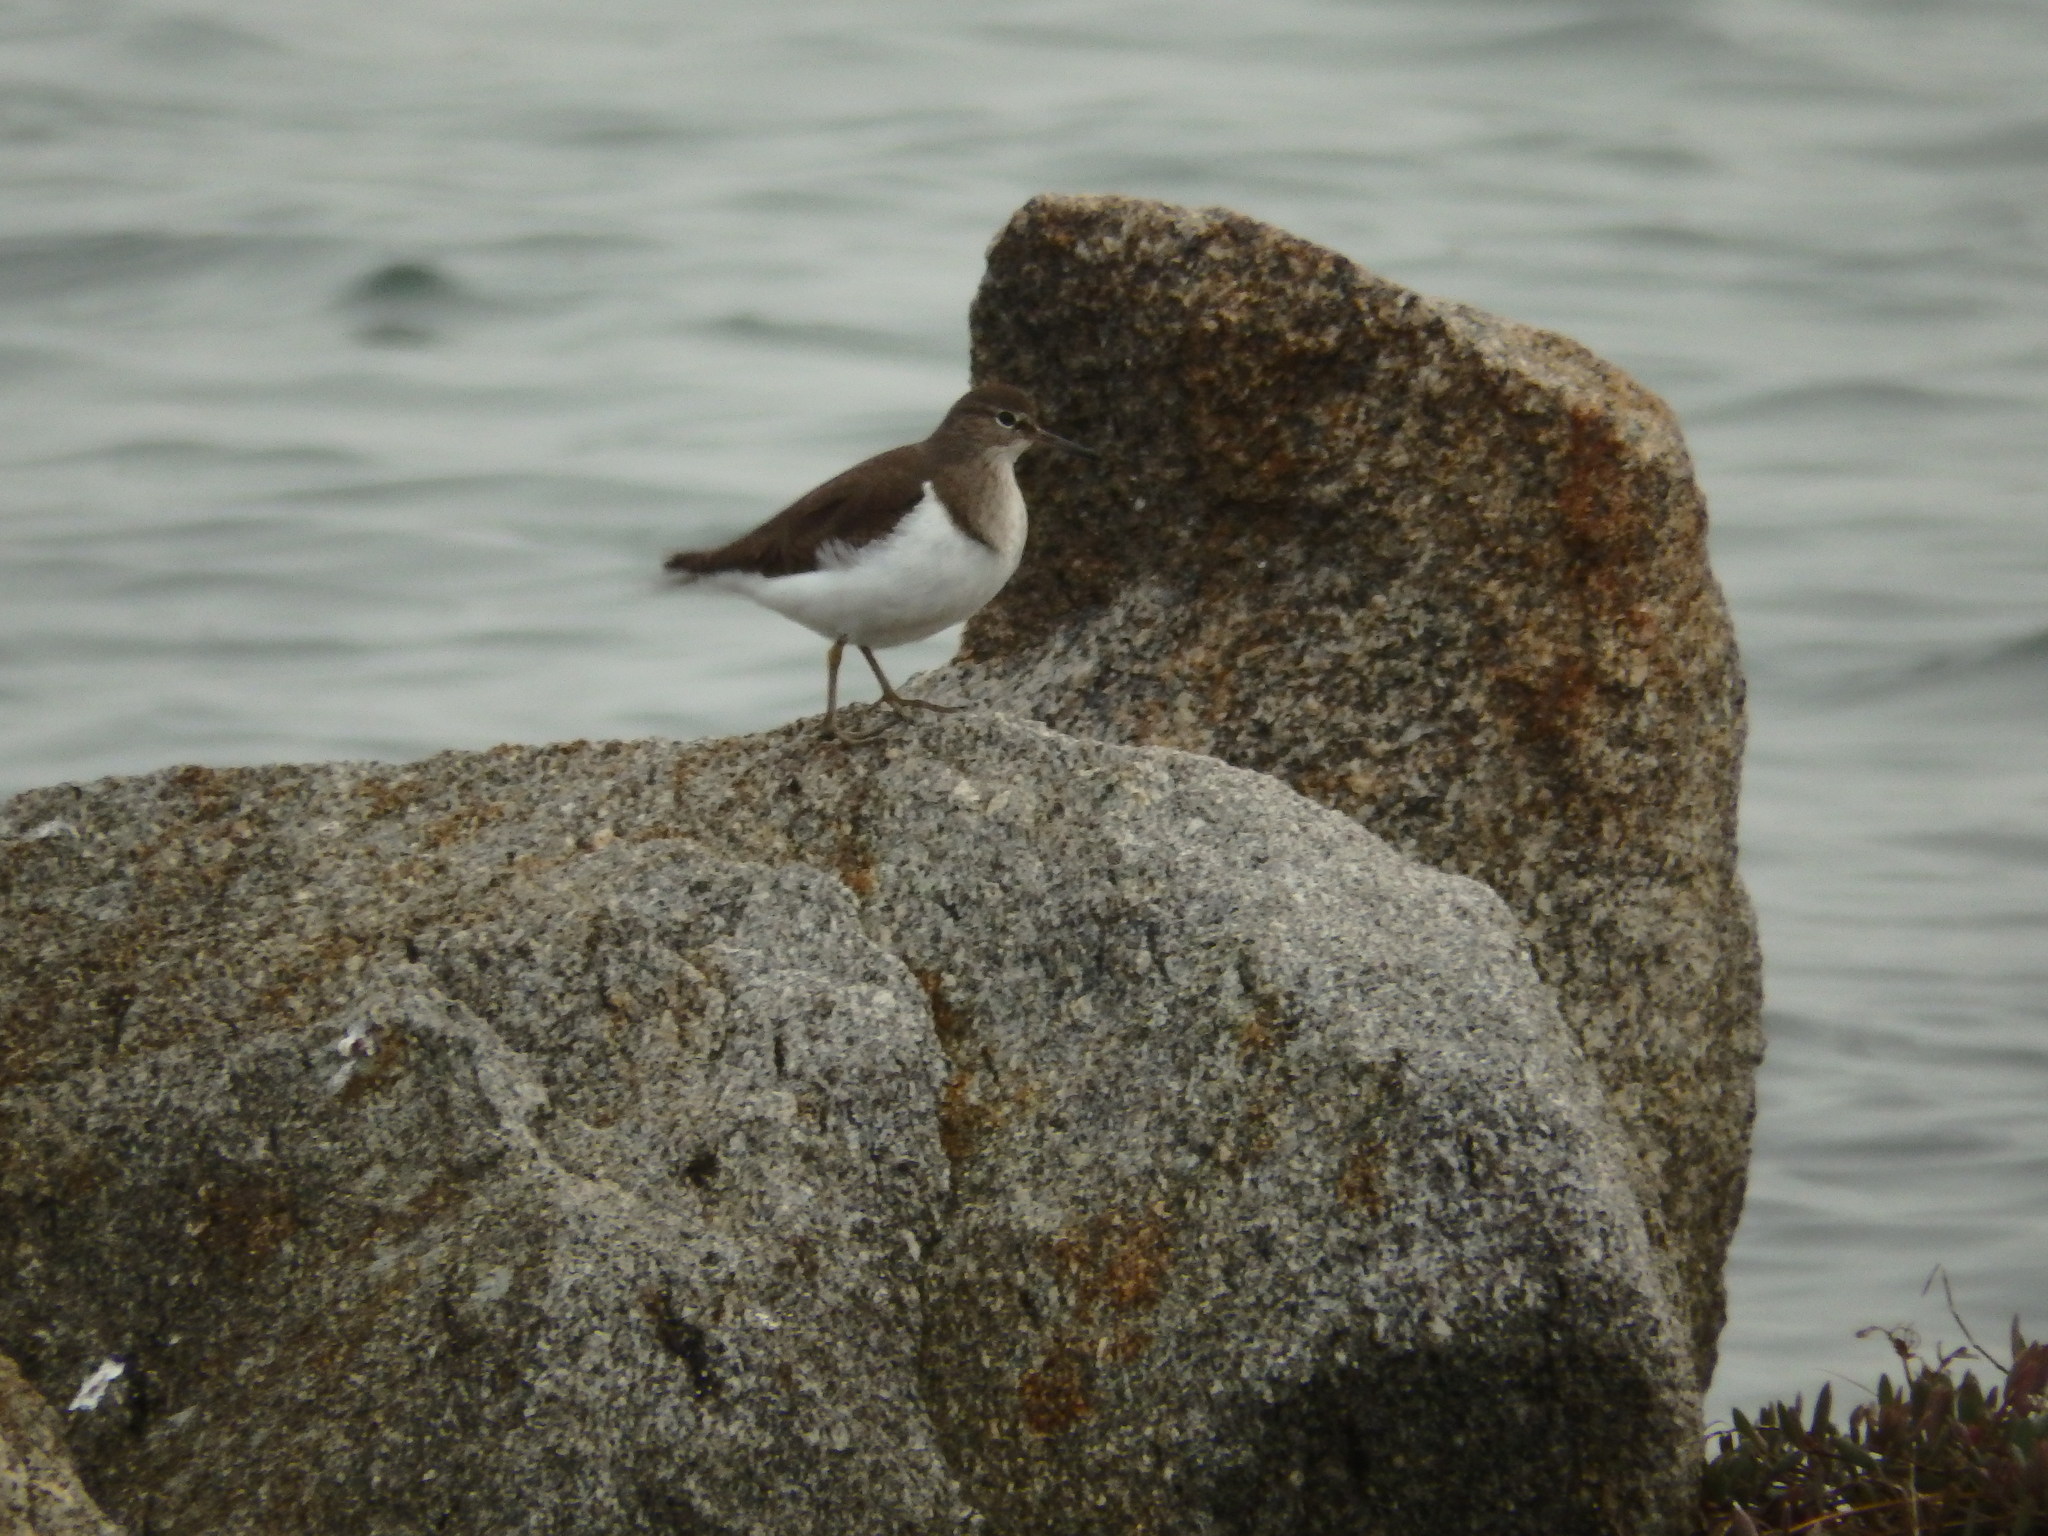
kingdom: Animalia
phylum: Chordata
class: Aves
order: Charadriiformes
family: Scolopacidae
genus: Actitis
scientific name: Actitis hypoleucos
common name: Common sandpiper
